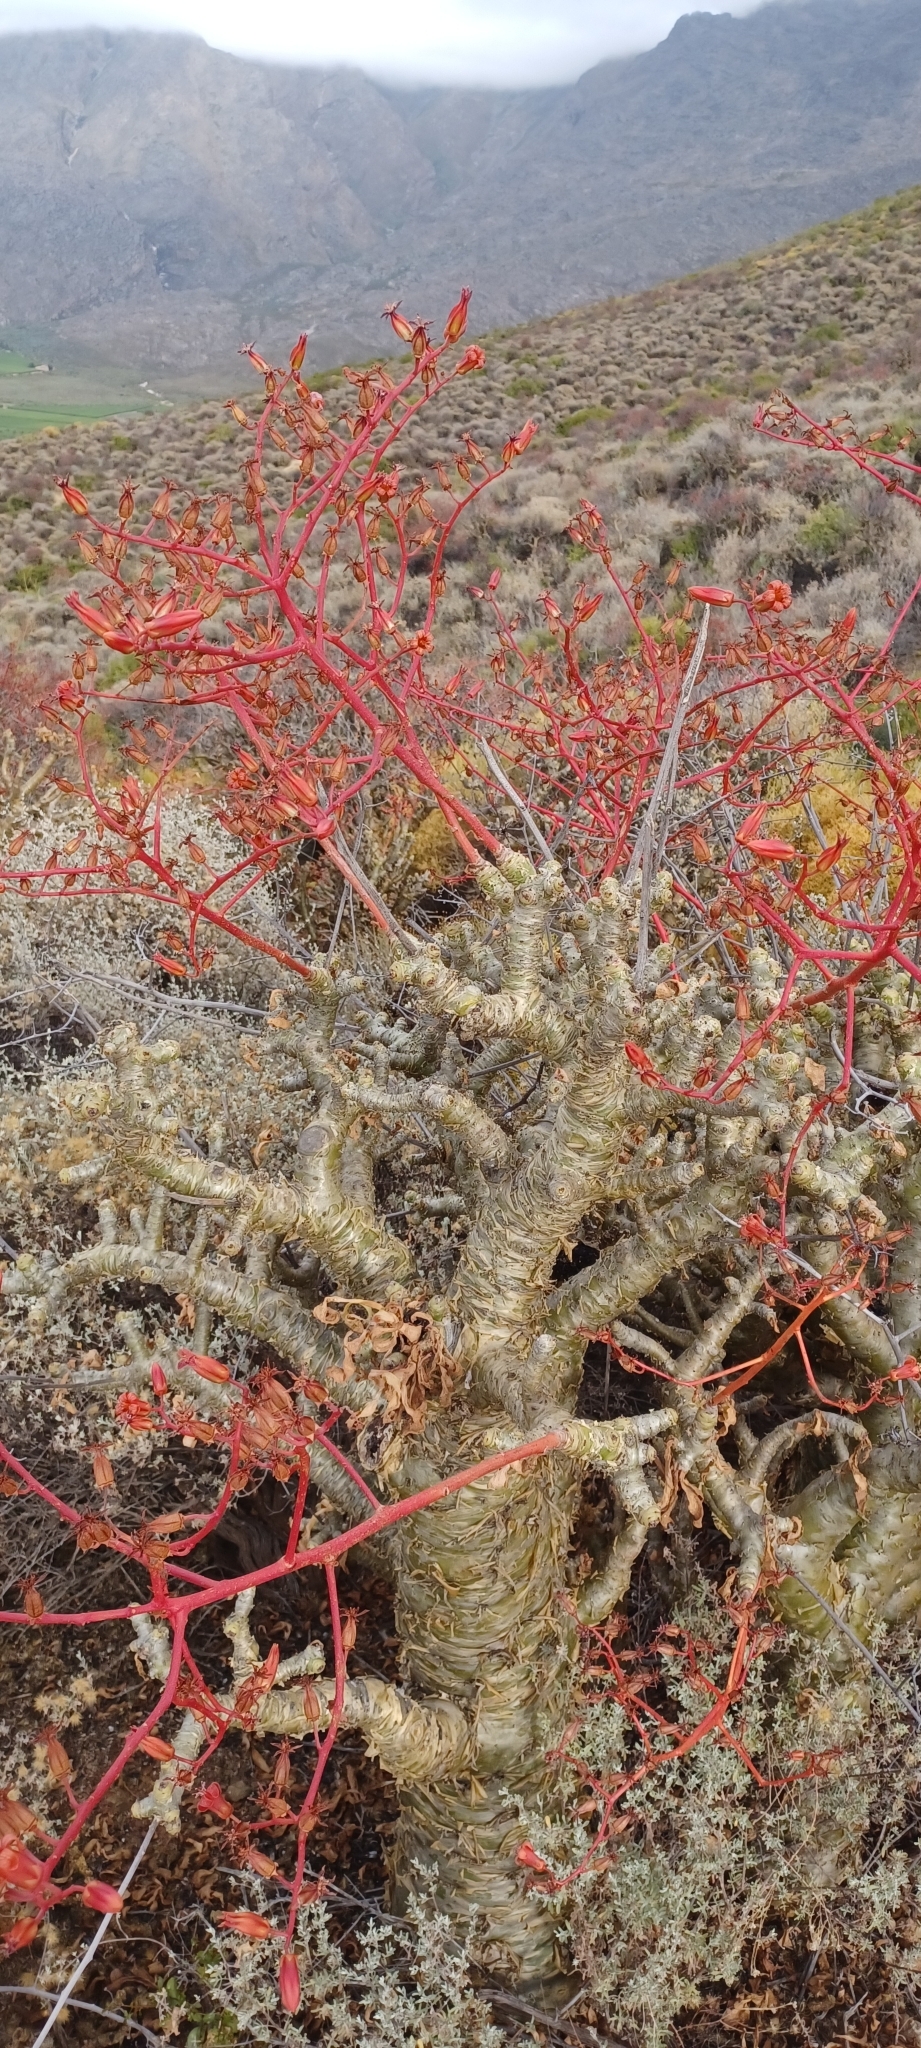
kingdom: Plantae
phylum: Tracheophyta
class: Magnoliopsida
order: Saxifragales
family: Crassulaceae
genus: Tylecodon
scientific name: Tylecodon paniculatus
